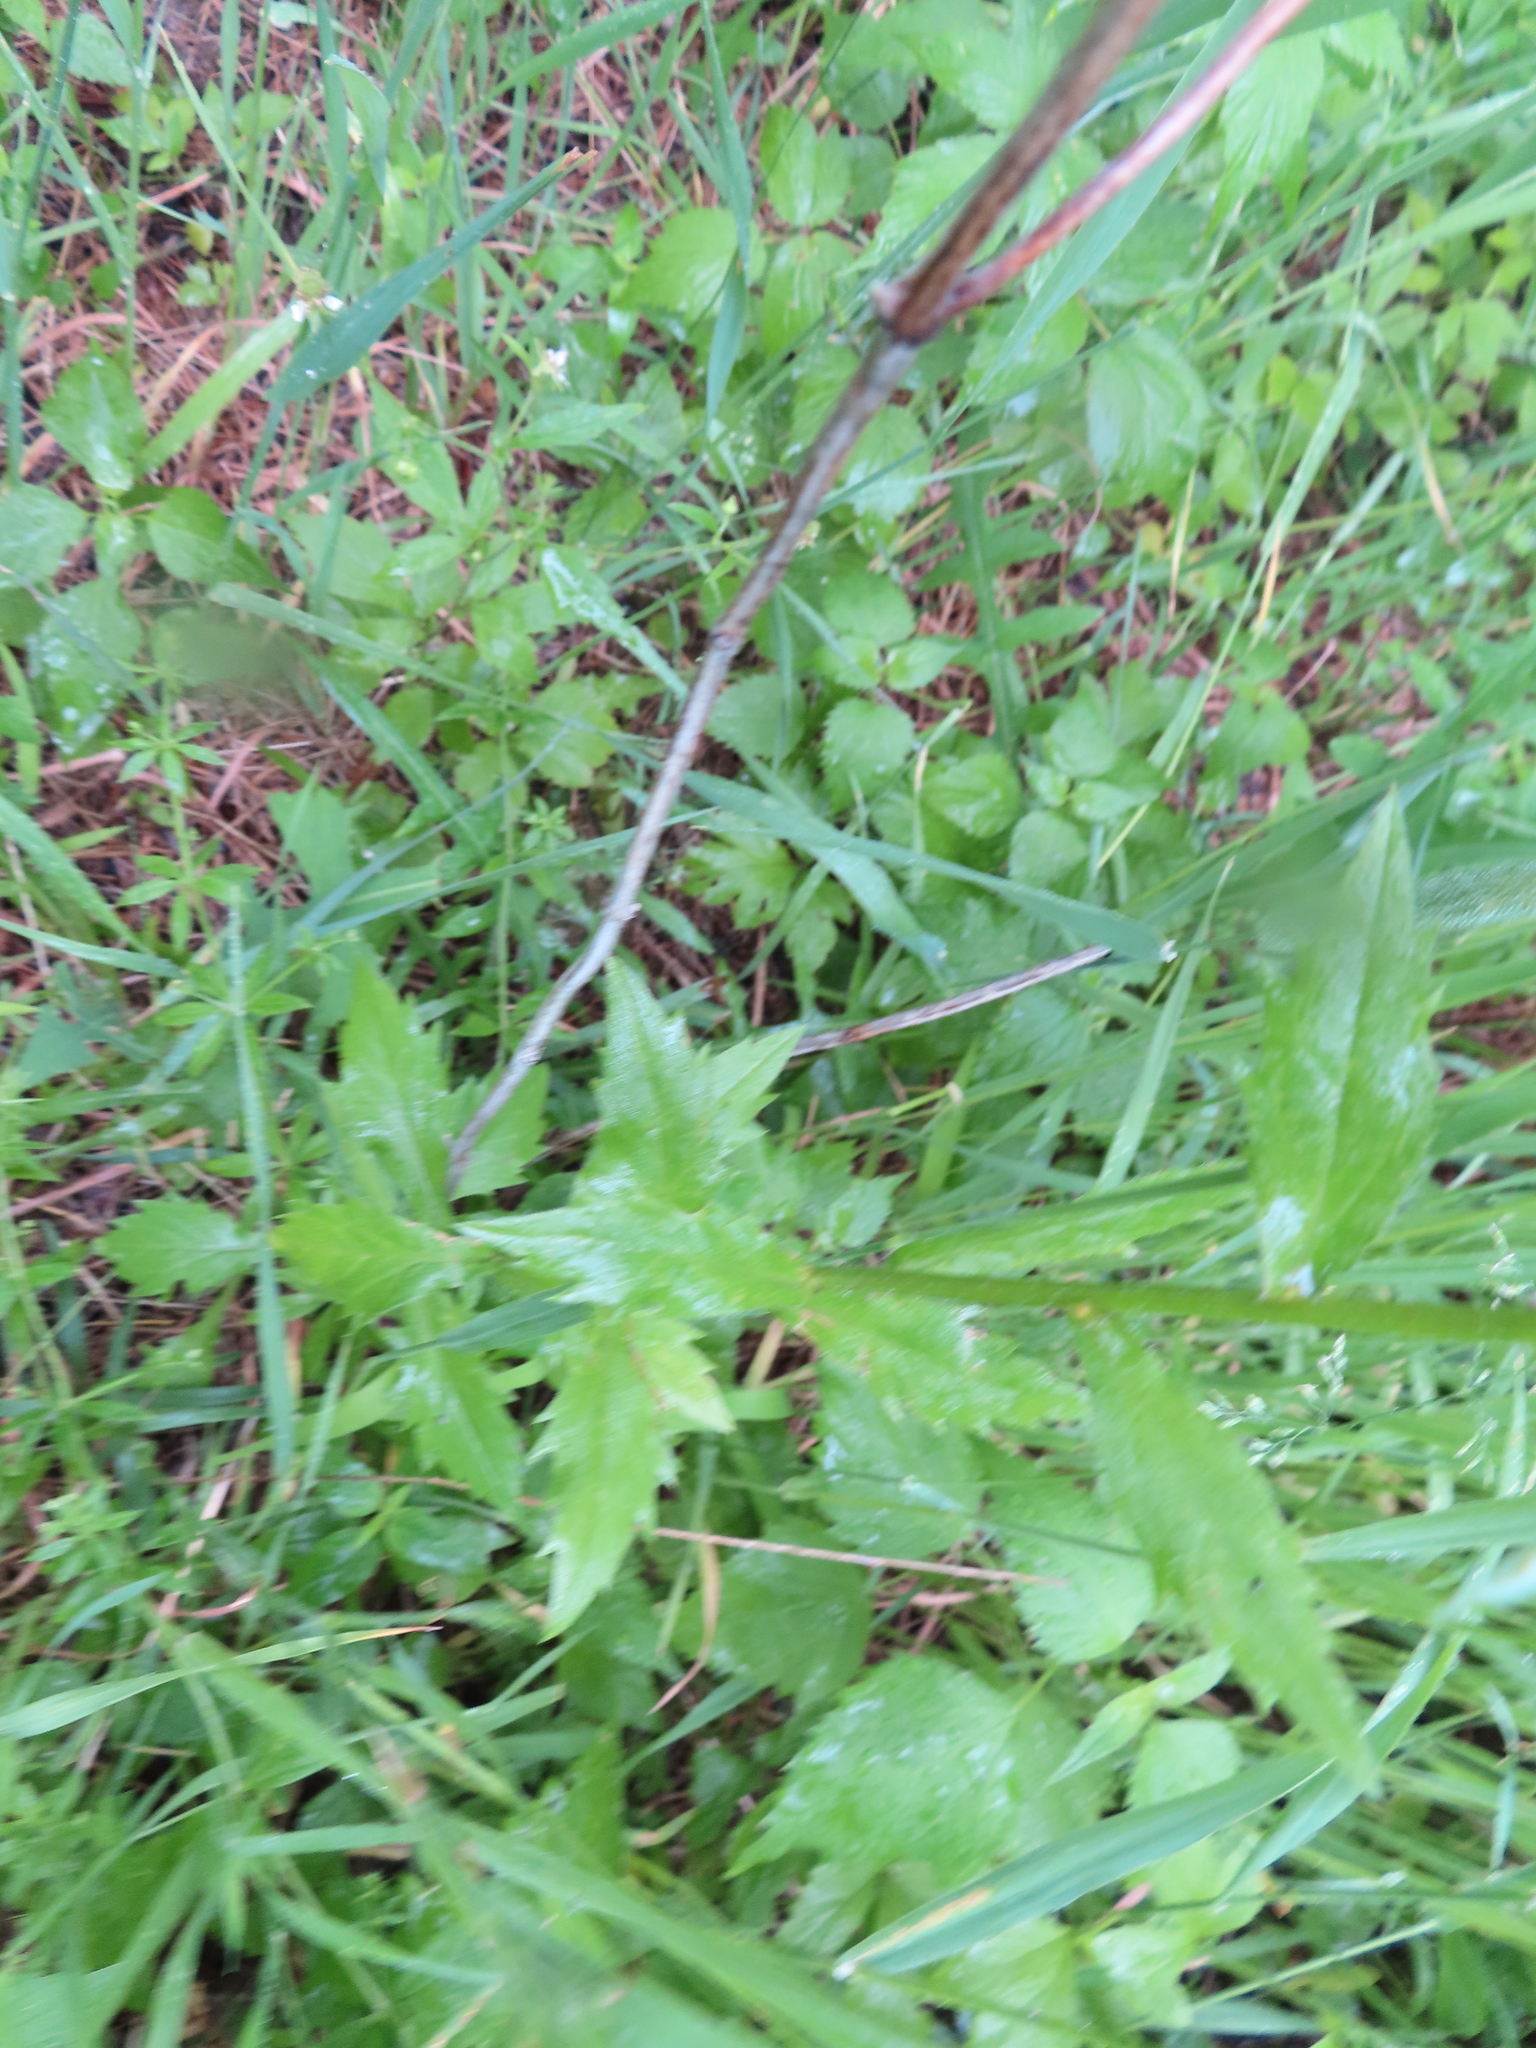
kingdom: Plantae
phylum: Tracheophyta
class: Magnoliopsida
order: Asterales
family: Asteraceae
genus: Erigeron
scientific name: Erigeron strigosus
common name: Common eastern fleabane
